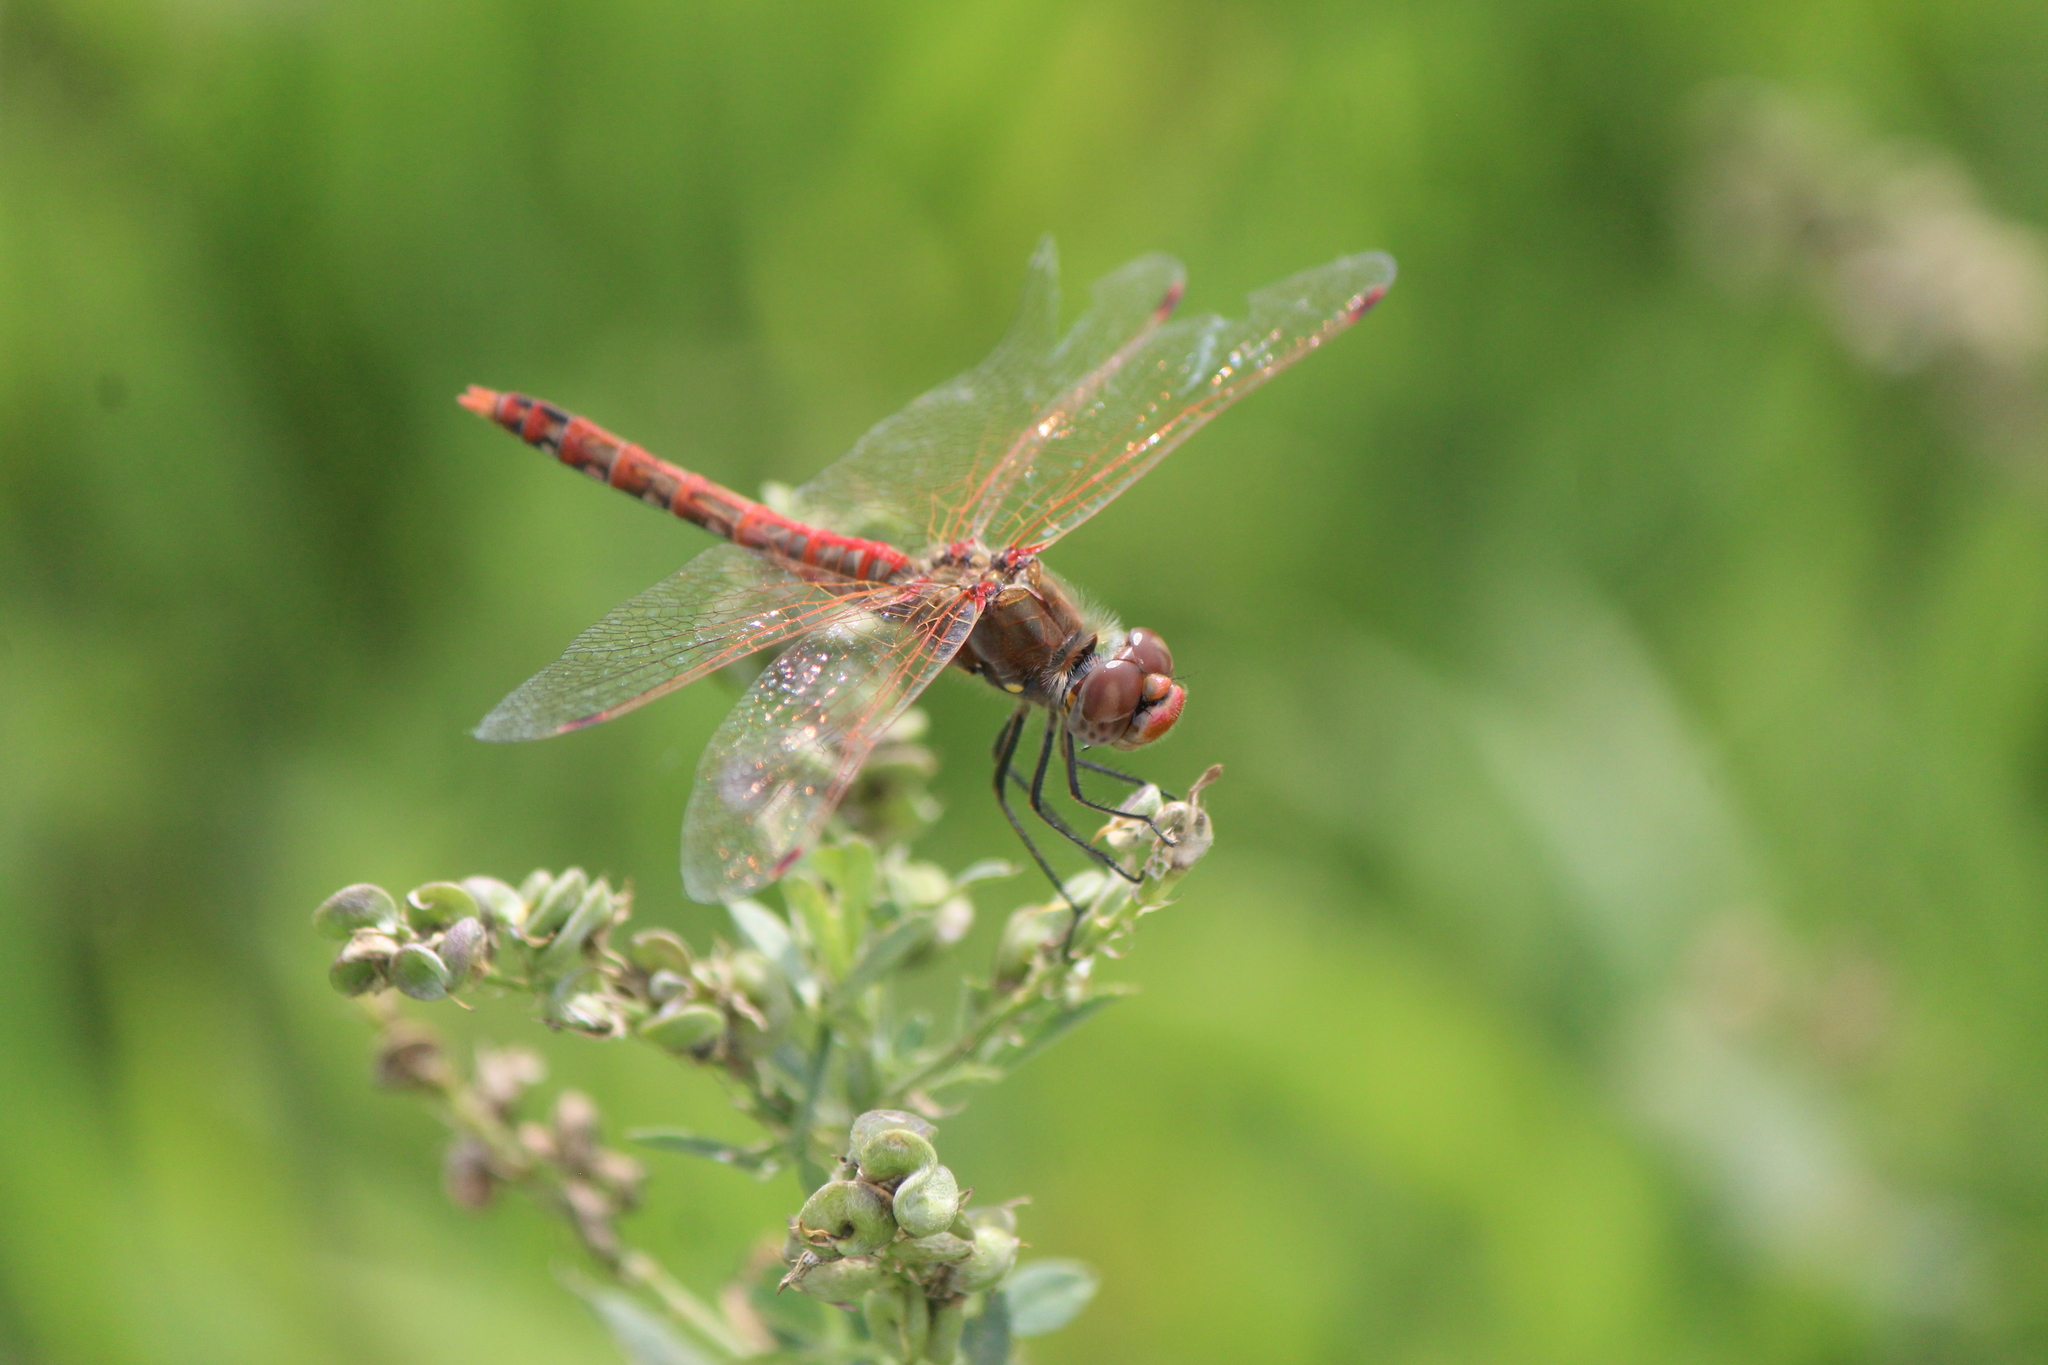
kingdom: Animalia
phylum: Arthropoda
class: Insecta
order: Odonata
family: Libellulidae
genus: Sympetrum
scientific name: Sympetrum corruptum
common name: Variegated meadowhawk
